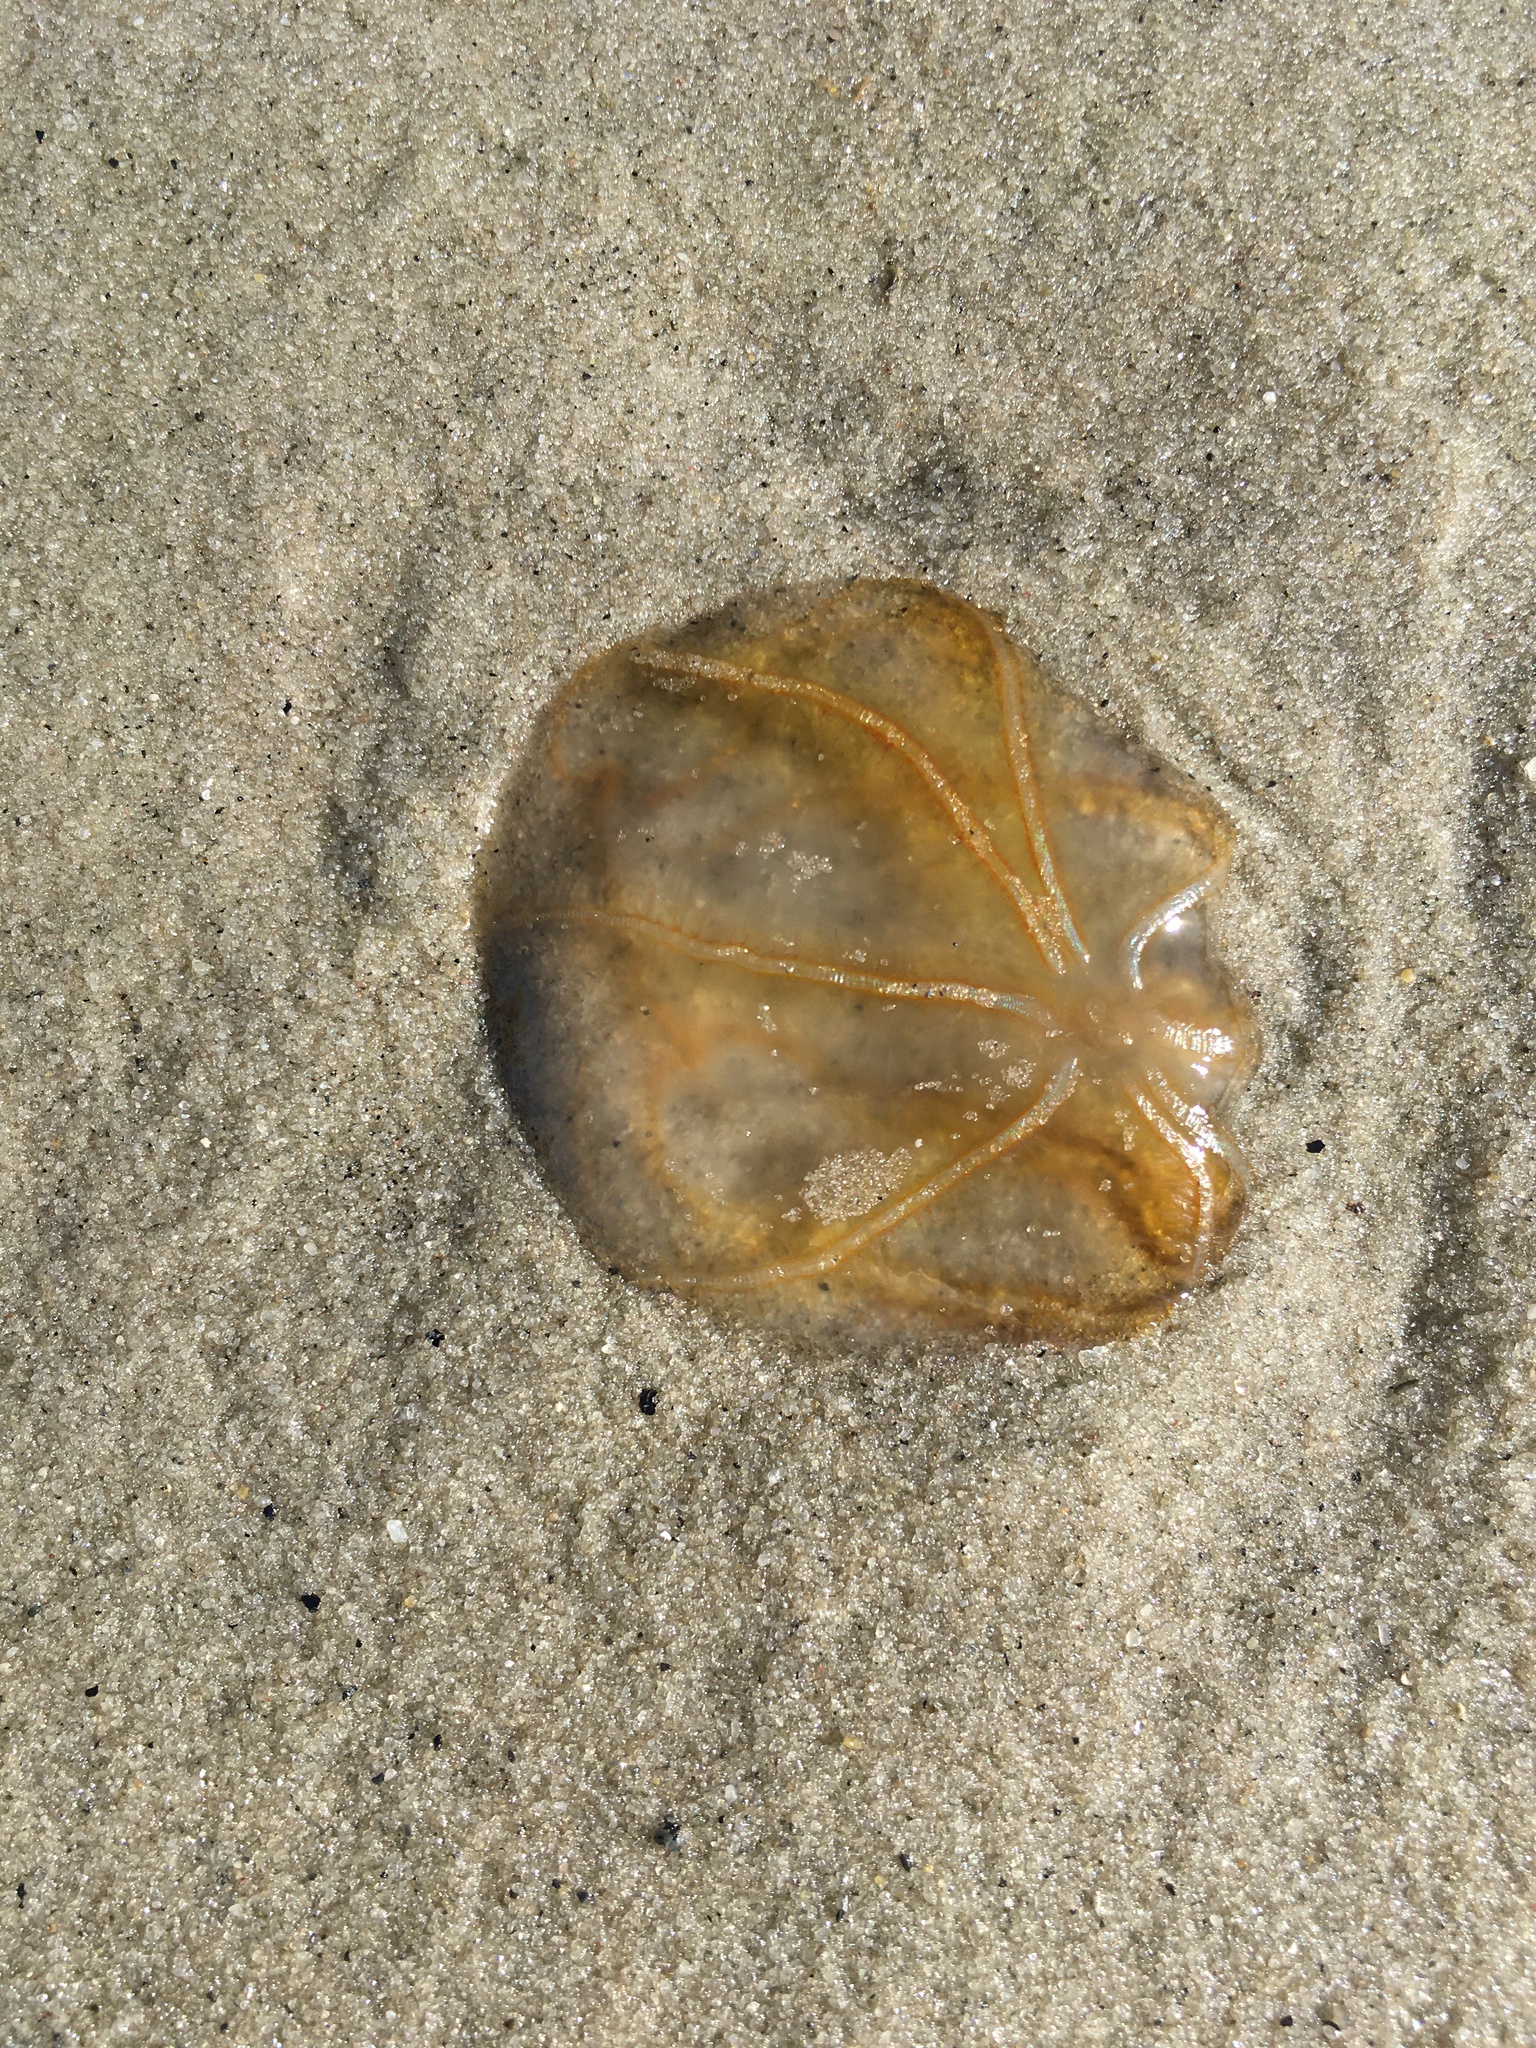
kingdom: Animalia
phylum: Ctenophora
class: Nuda
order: Beroida
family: Beroidae
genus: Beroe
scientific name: Beroe ovata
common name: Flattened helmet comb jelly
